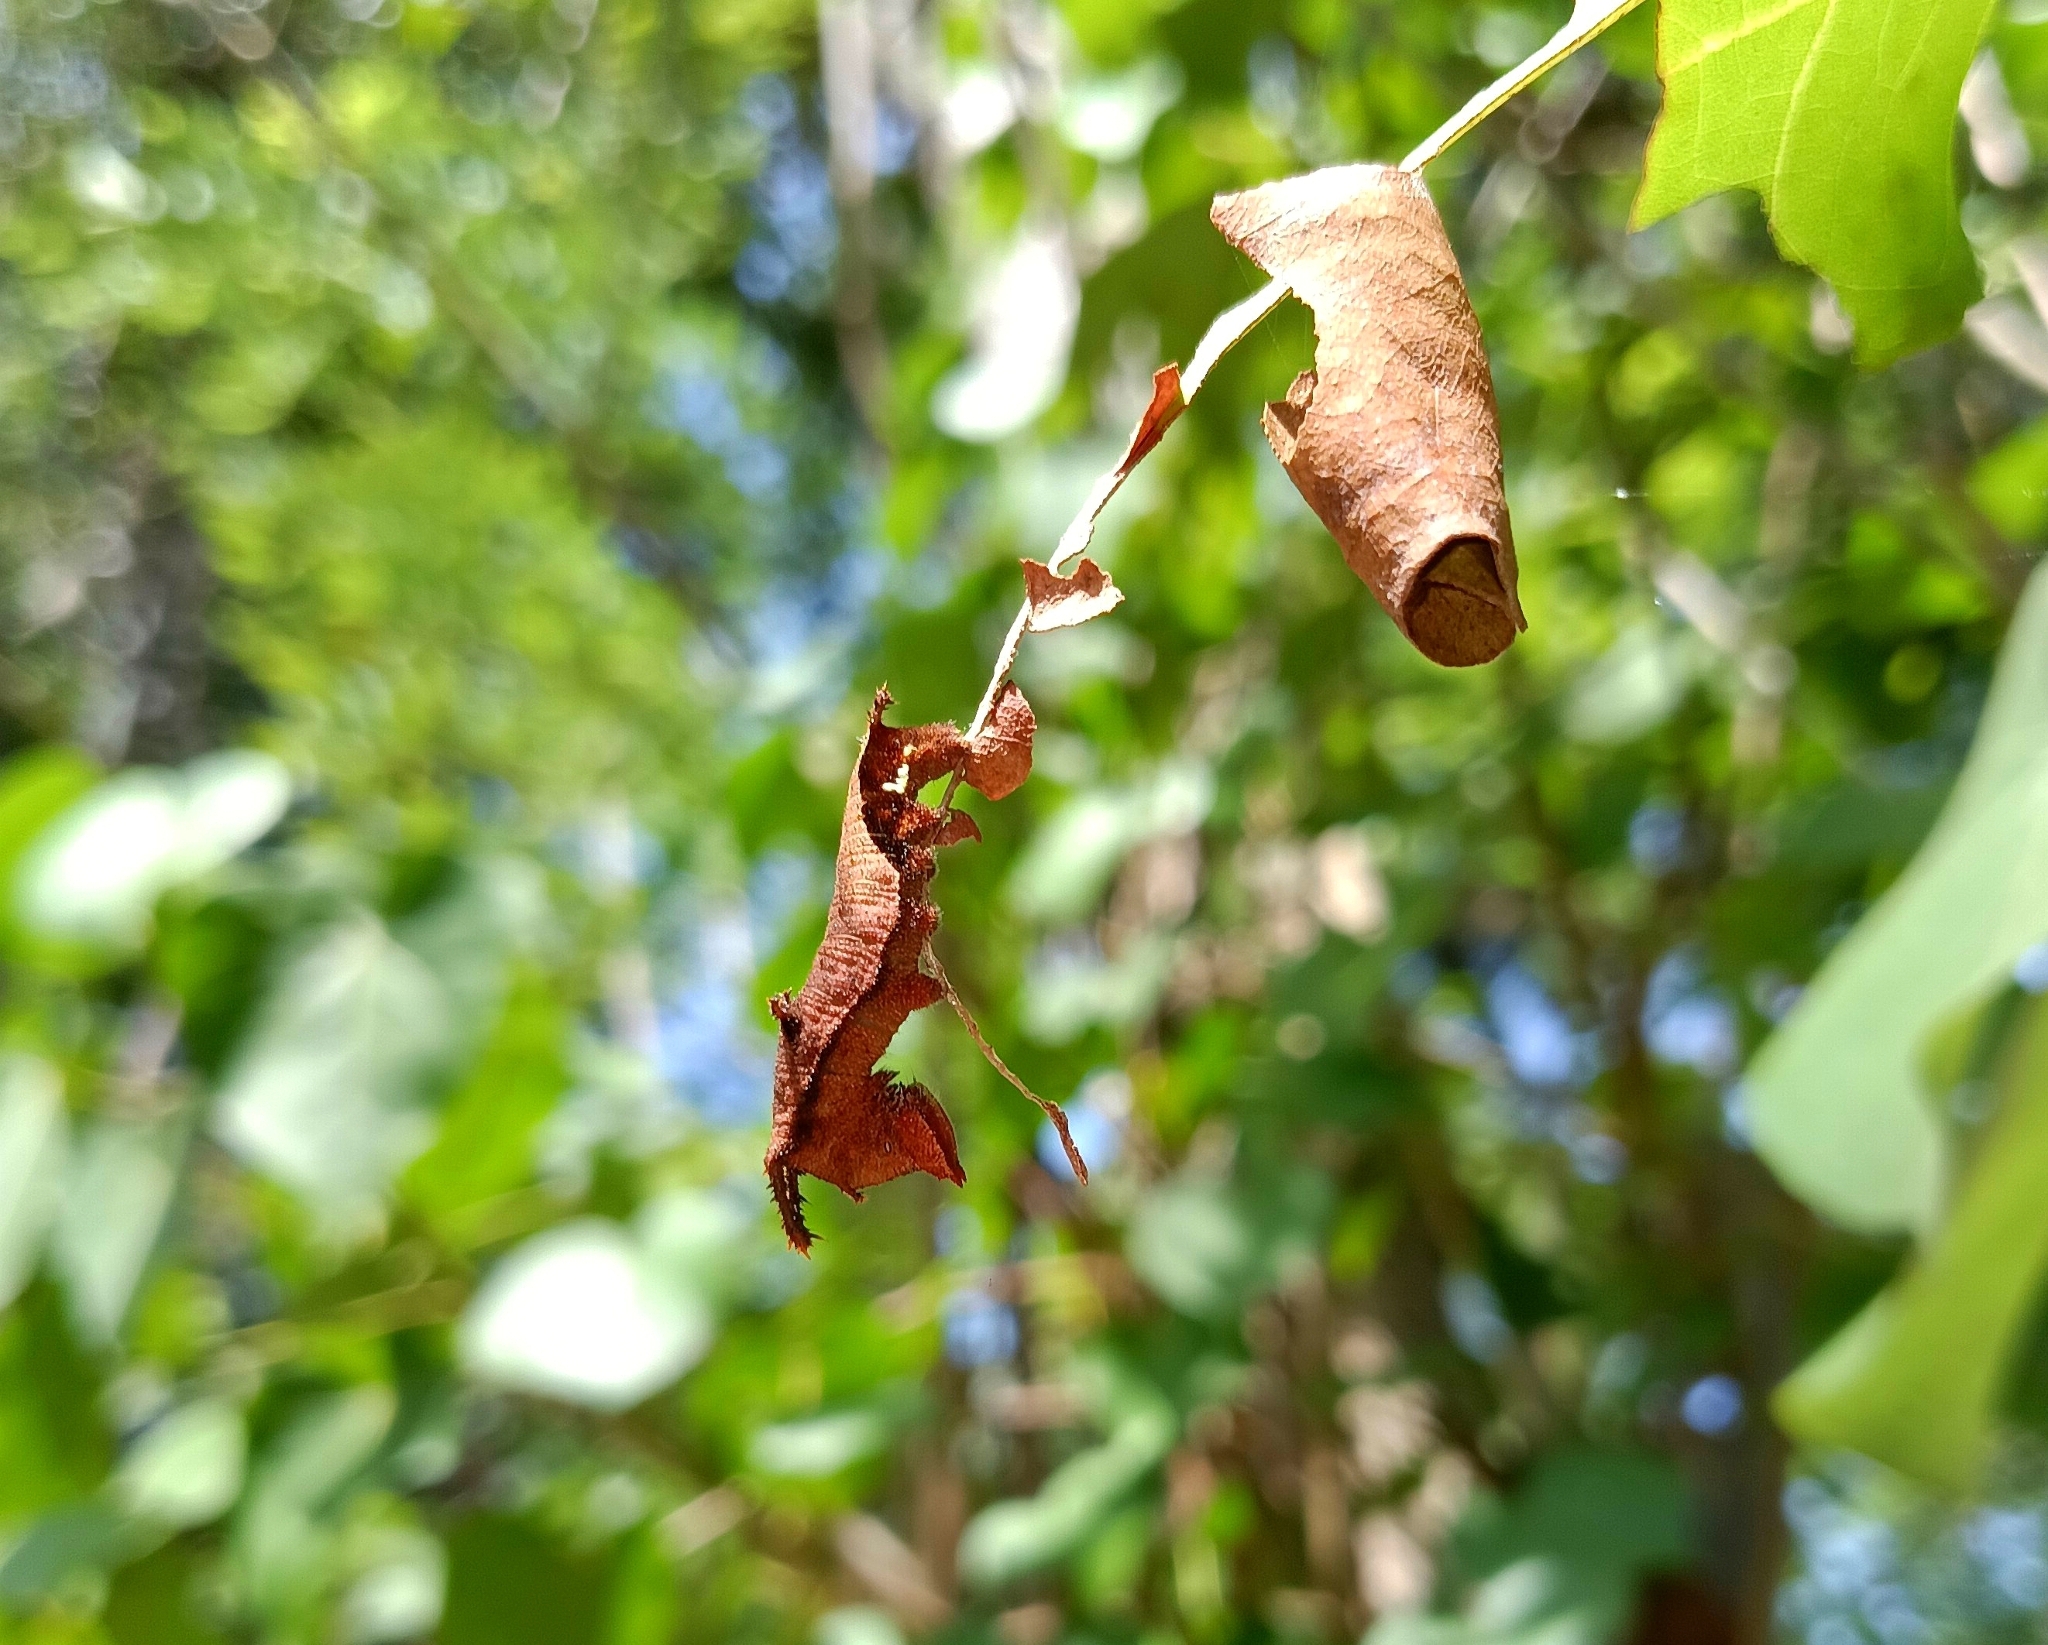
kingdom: Animalia
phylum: Arthropoda
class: Insecta
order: Lepidoptera
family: Nymphalidae
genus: Neptis
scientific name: Neptis jumbah
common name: Chestnut-streaked sailer
